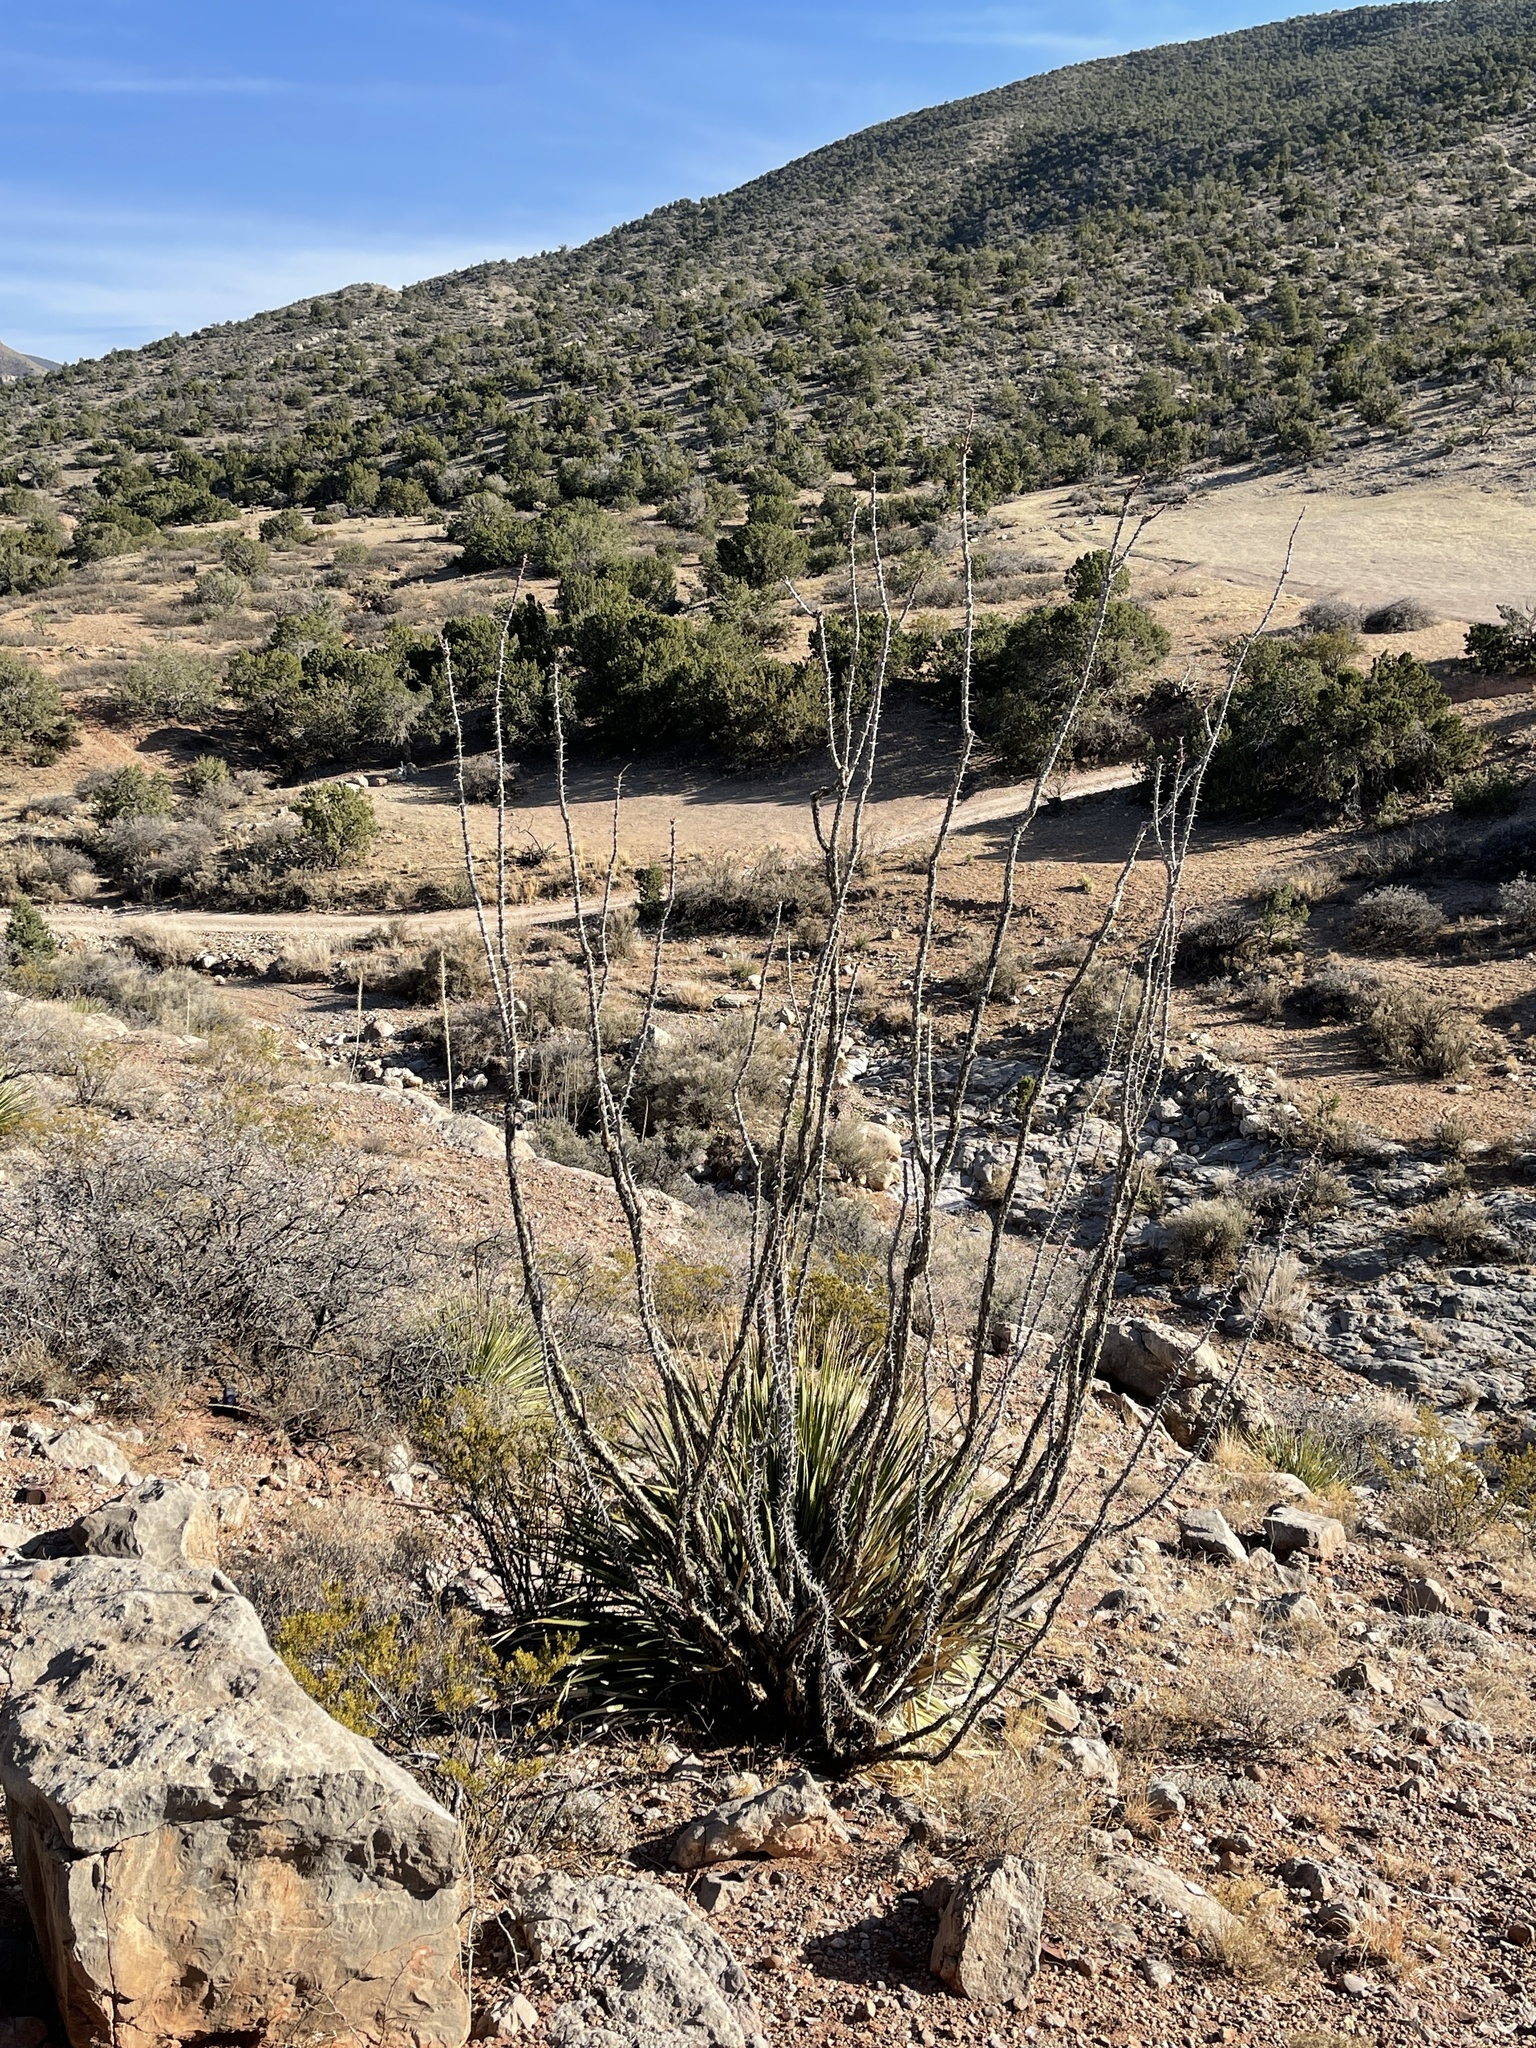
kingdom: Plantae
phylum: Tracheophyta
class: Magnoliopsida
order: Ericales
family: Fouquieriaceae
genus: Fouquieria
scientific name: Fouquieria splendens
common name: Vine-cactus
